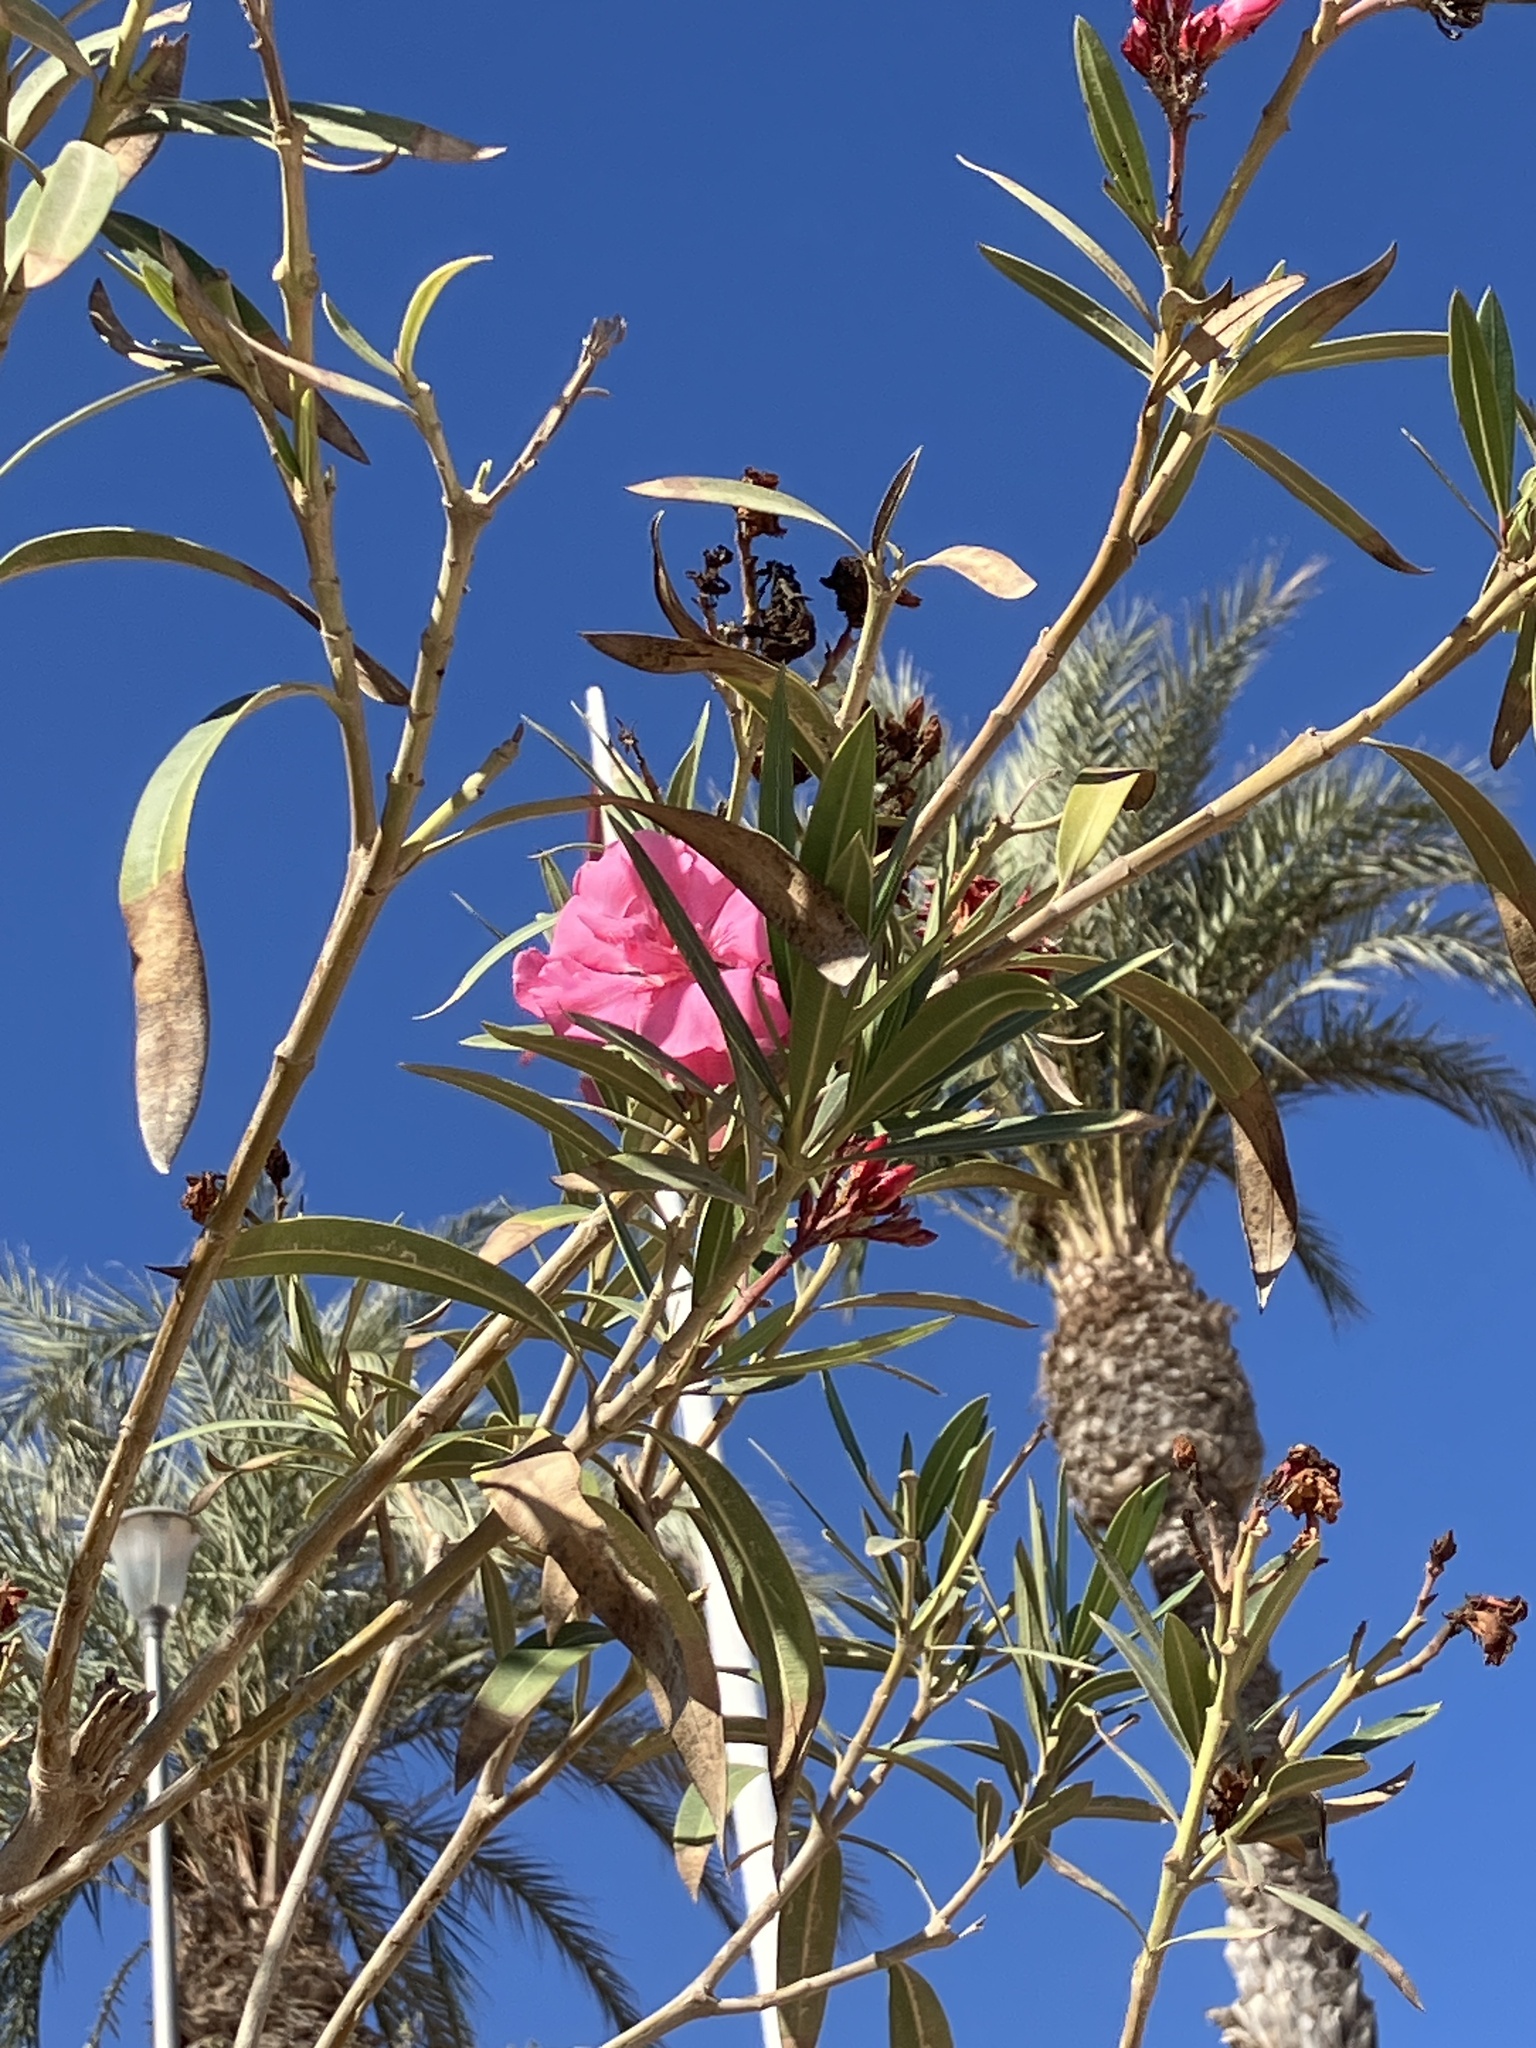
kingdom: Plantae
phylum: Tracheophyta
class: Magnoliopsida
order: Gentianales
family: Apocynaceae
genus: Nerium
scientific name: Nerium oleander
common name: Oleander
